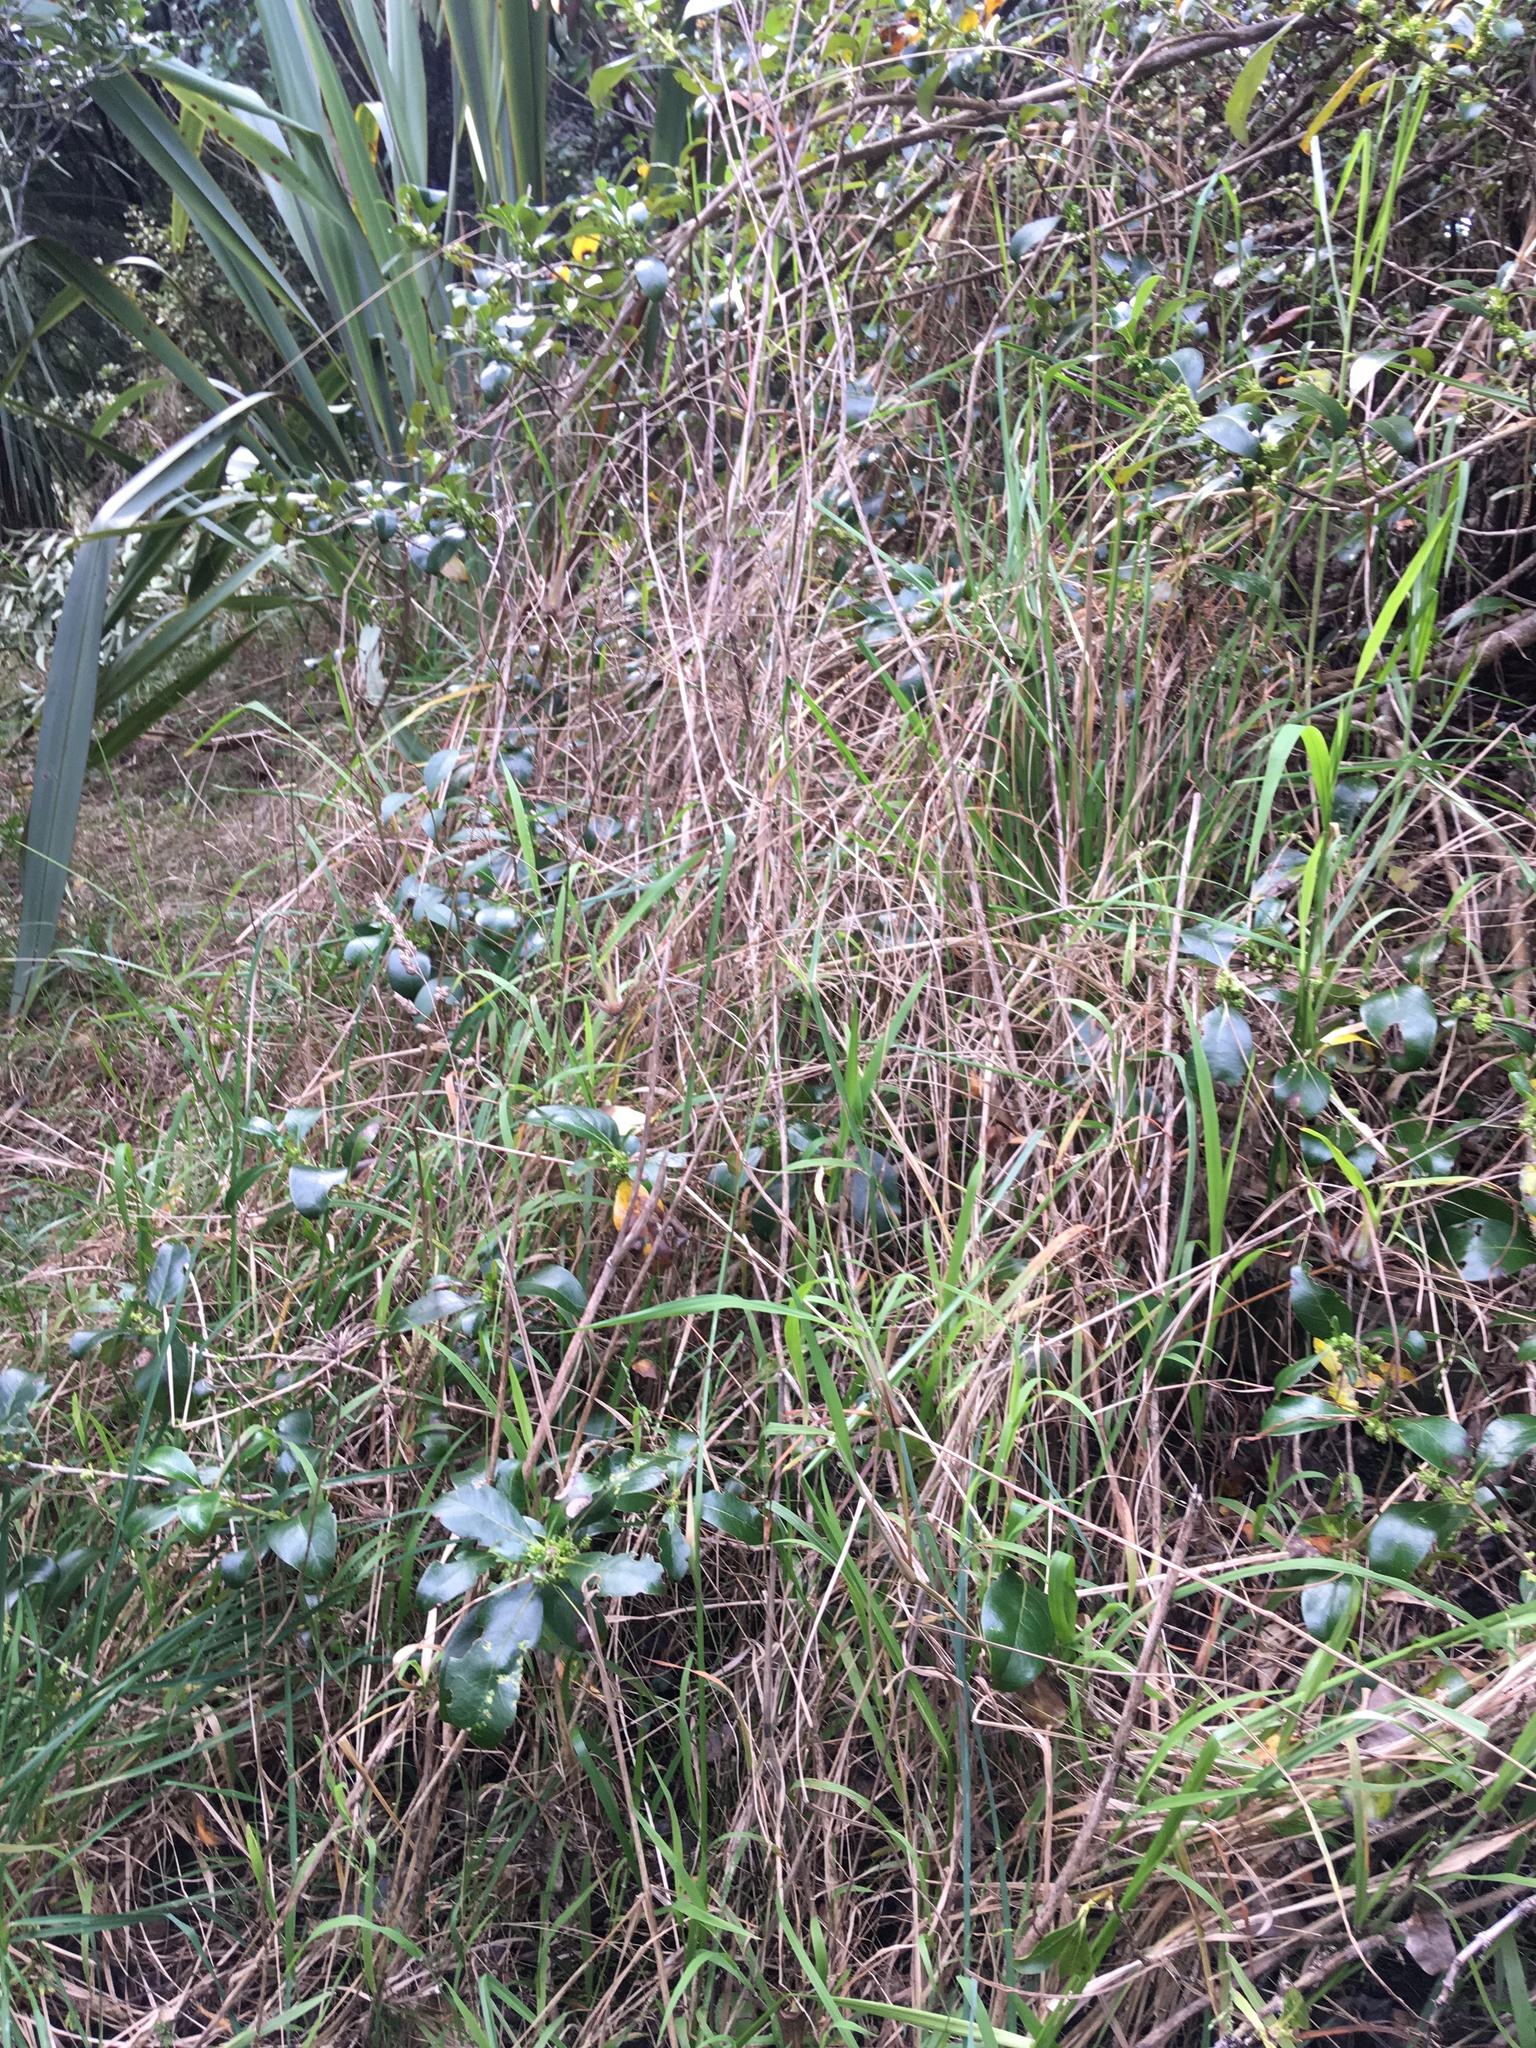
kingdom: Plantae
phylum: Tracheophyta
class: Liliopsida
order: Poales
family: Poaceae
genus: Cenchrus
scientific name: Cenchrus clandestinus
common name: Kikuyugrass
